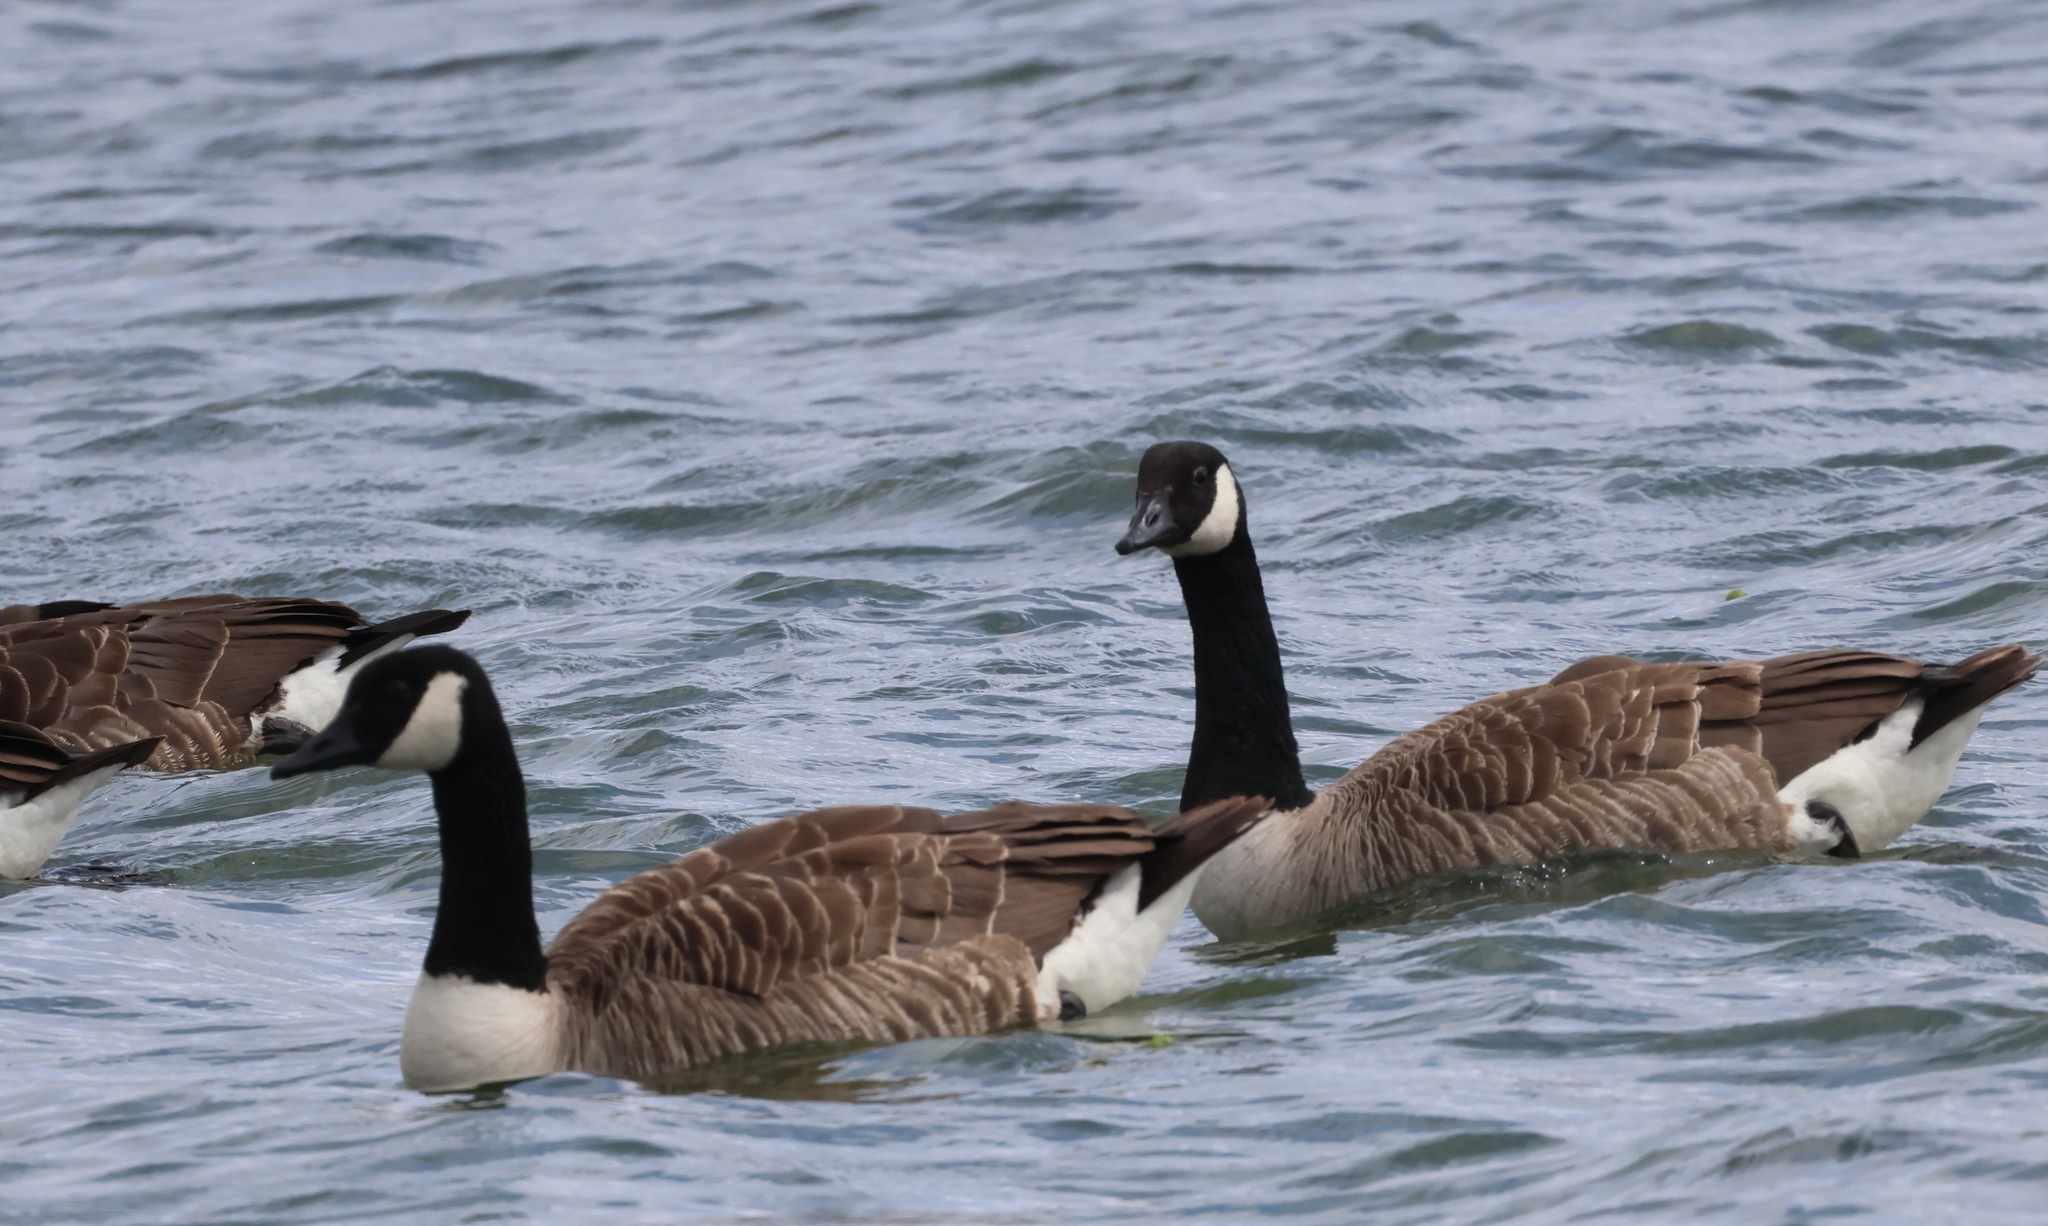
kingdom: Animalia
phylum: Chordata
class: Aves
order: Anseriformes
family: Anatidae
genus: Branta
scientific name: Branta canadensis
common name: Canada goose
